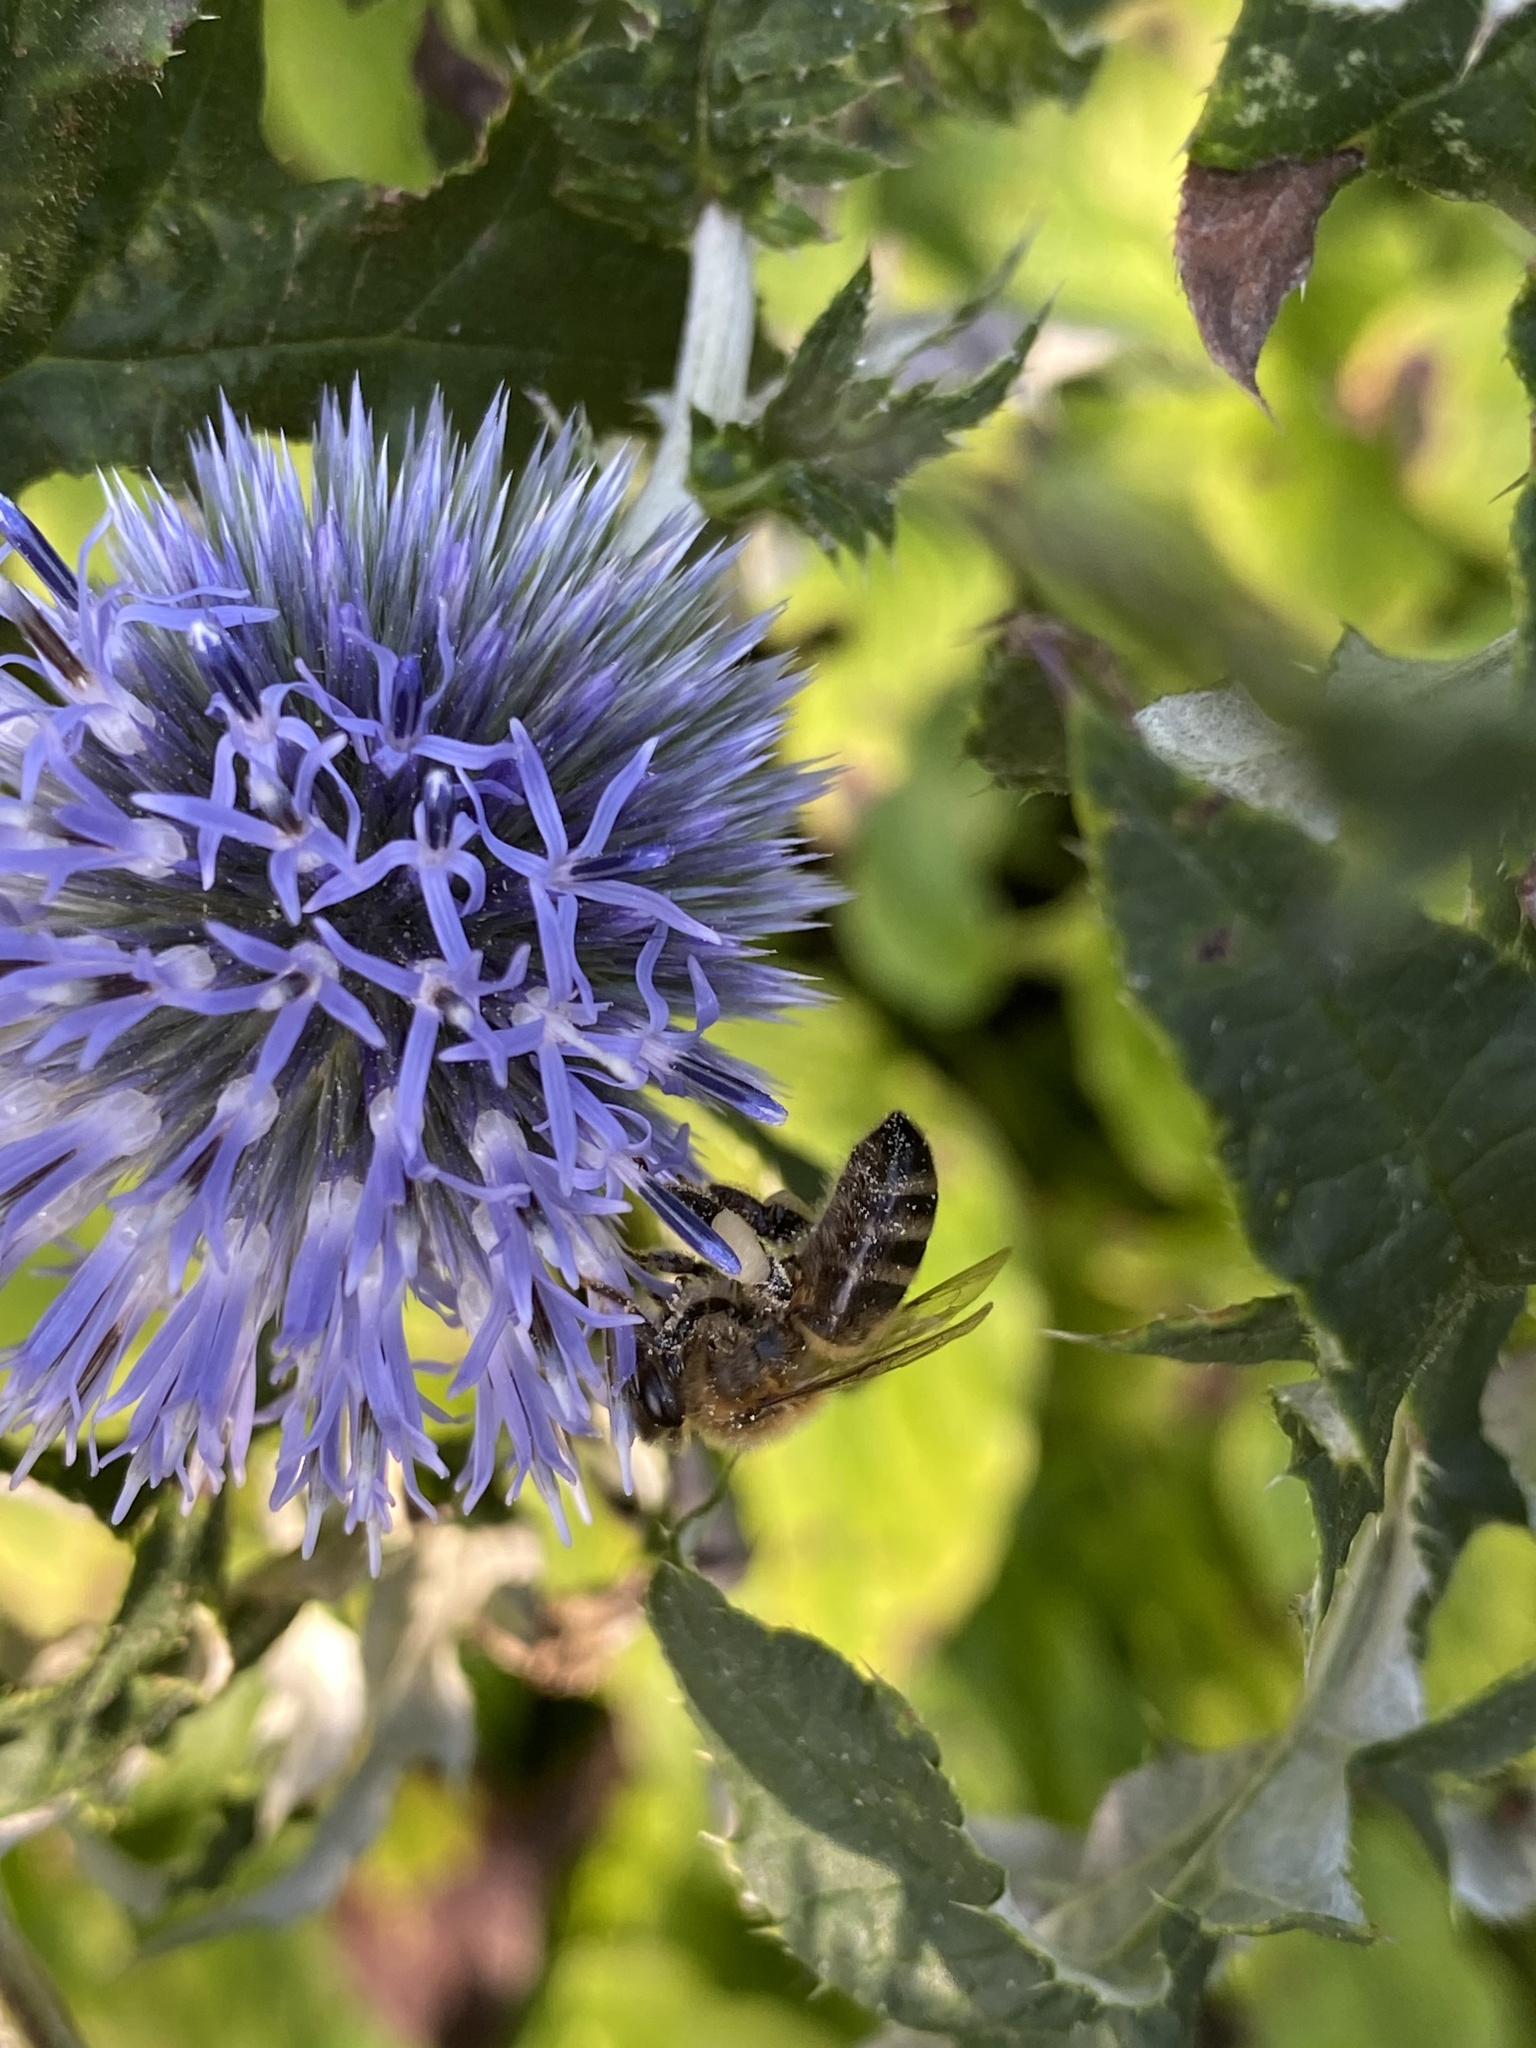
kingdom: Animalia
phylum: Arthropoda
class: Insecta
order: Hymenoptera
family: Apidae
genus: Apis
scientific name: Apis mellifera
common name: Honey bee
